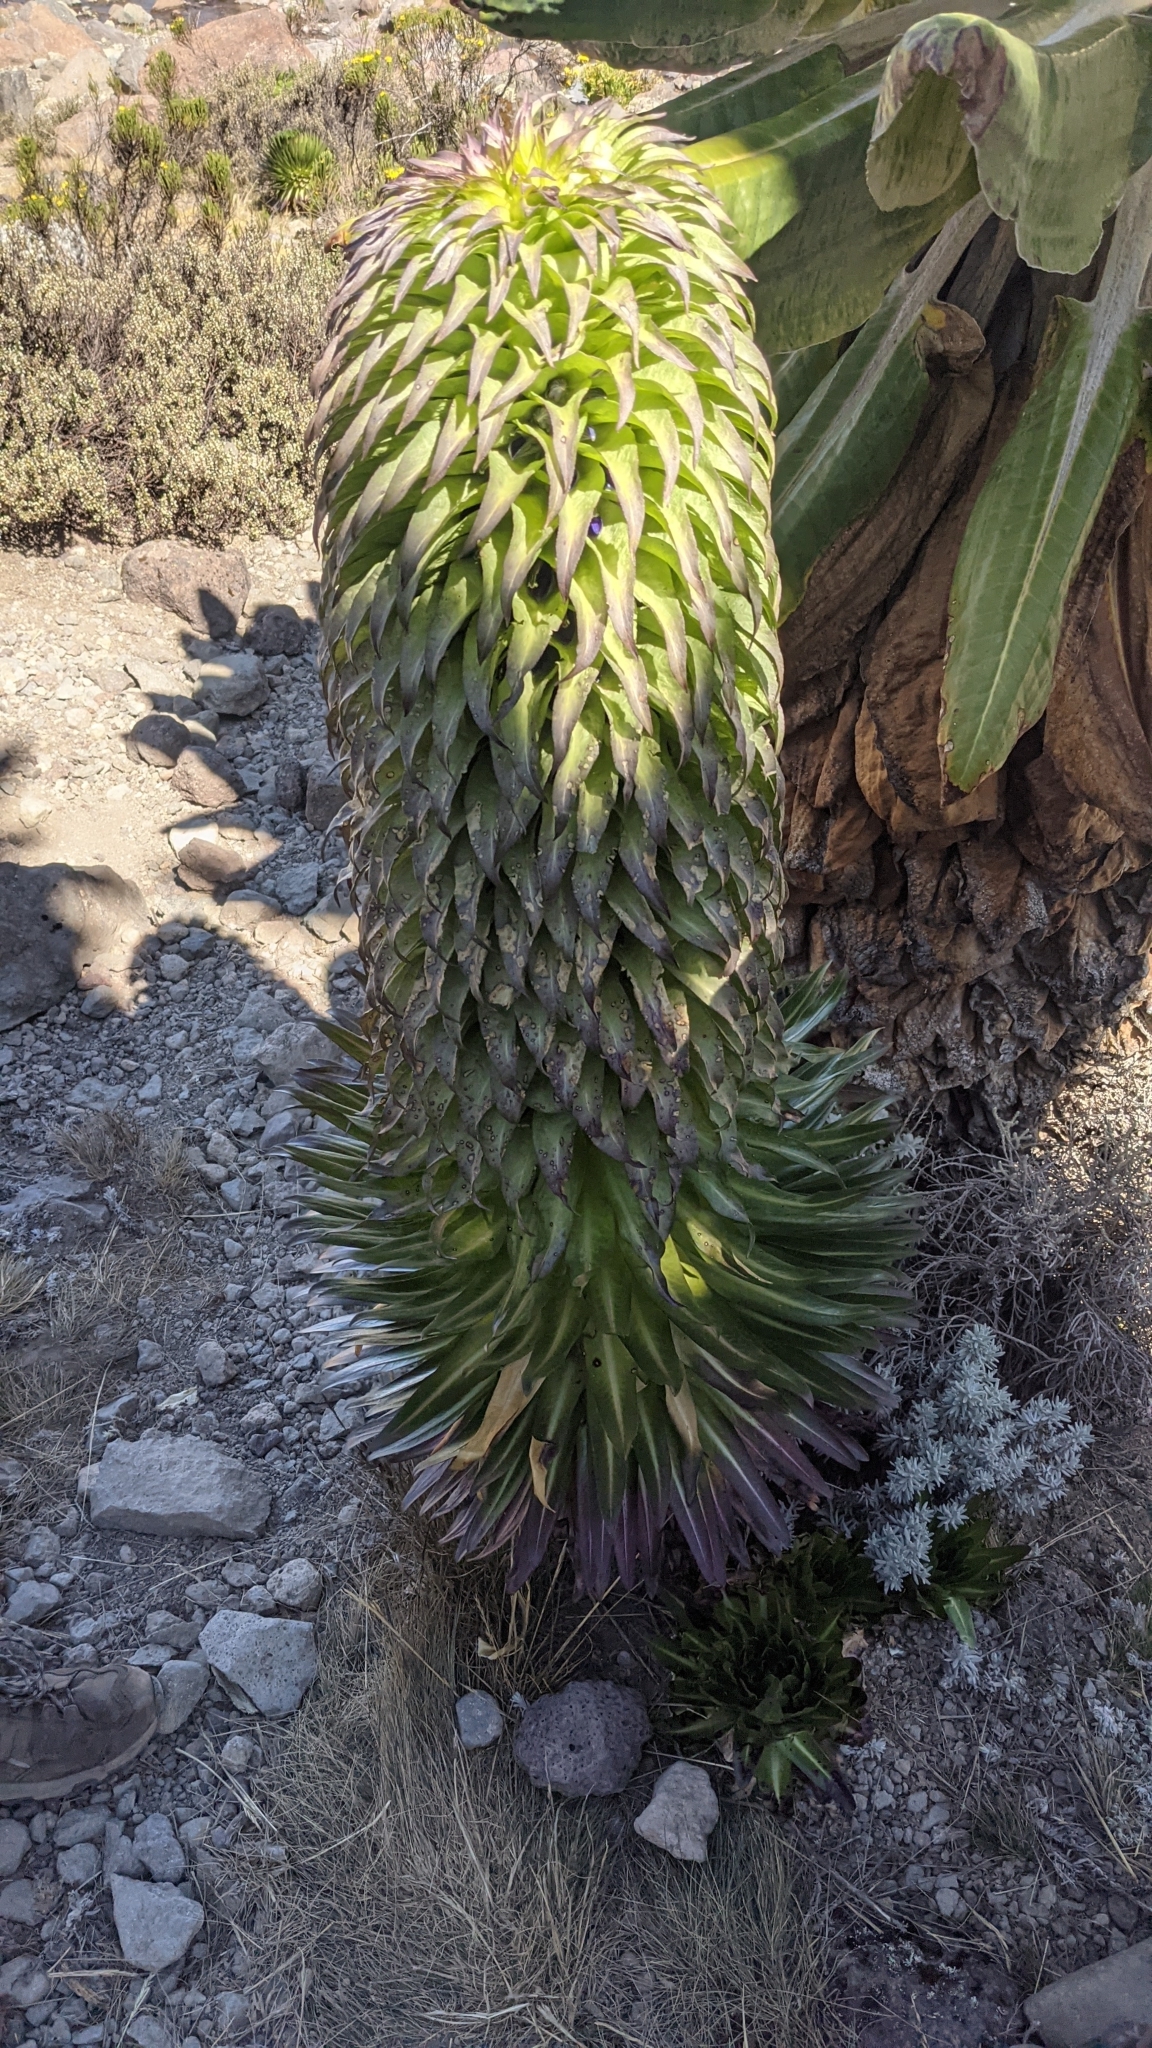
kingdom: Plantae
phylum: Tracheophyta
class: Magnoliopsida
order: Asterales
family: Campanulaceae
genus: Lobelia
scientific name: Lobelia deckenii
